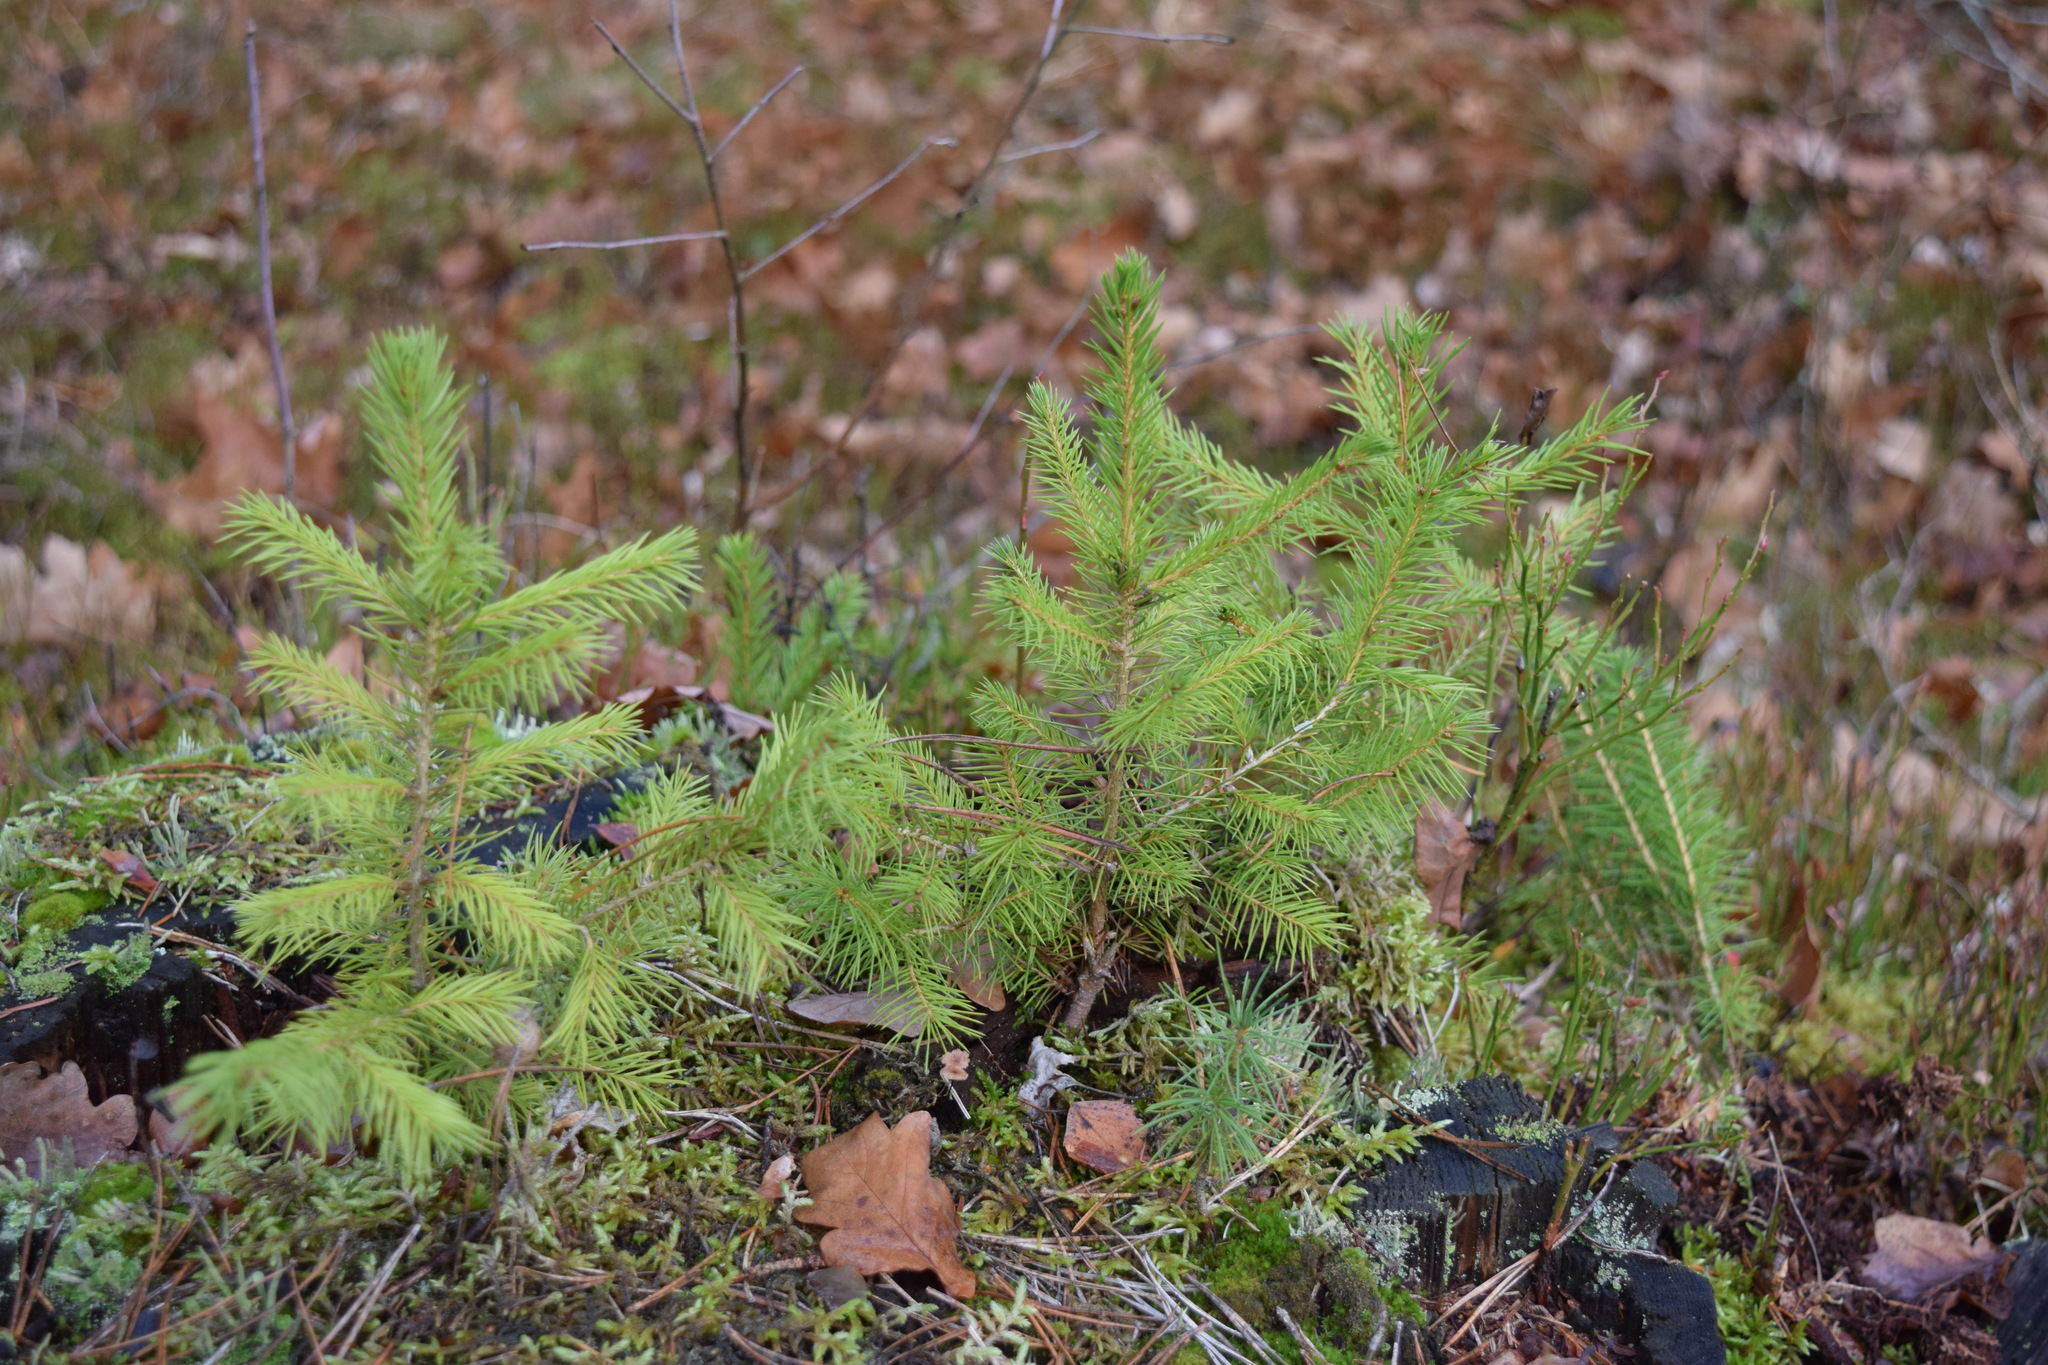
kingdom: Plantae
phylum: Tracheophyta
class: Pinopsida
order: Pinales
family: Pinaceae
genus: Picea
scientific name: Picea abies
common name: Norway spruce
